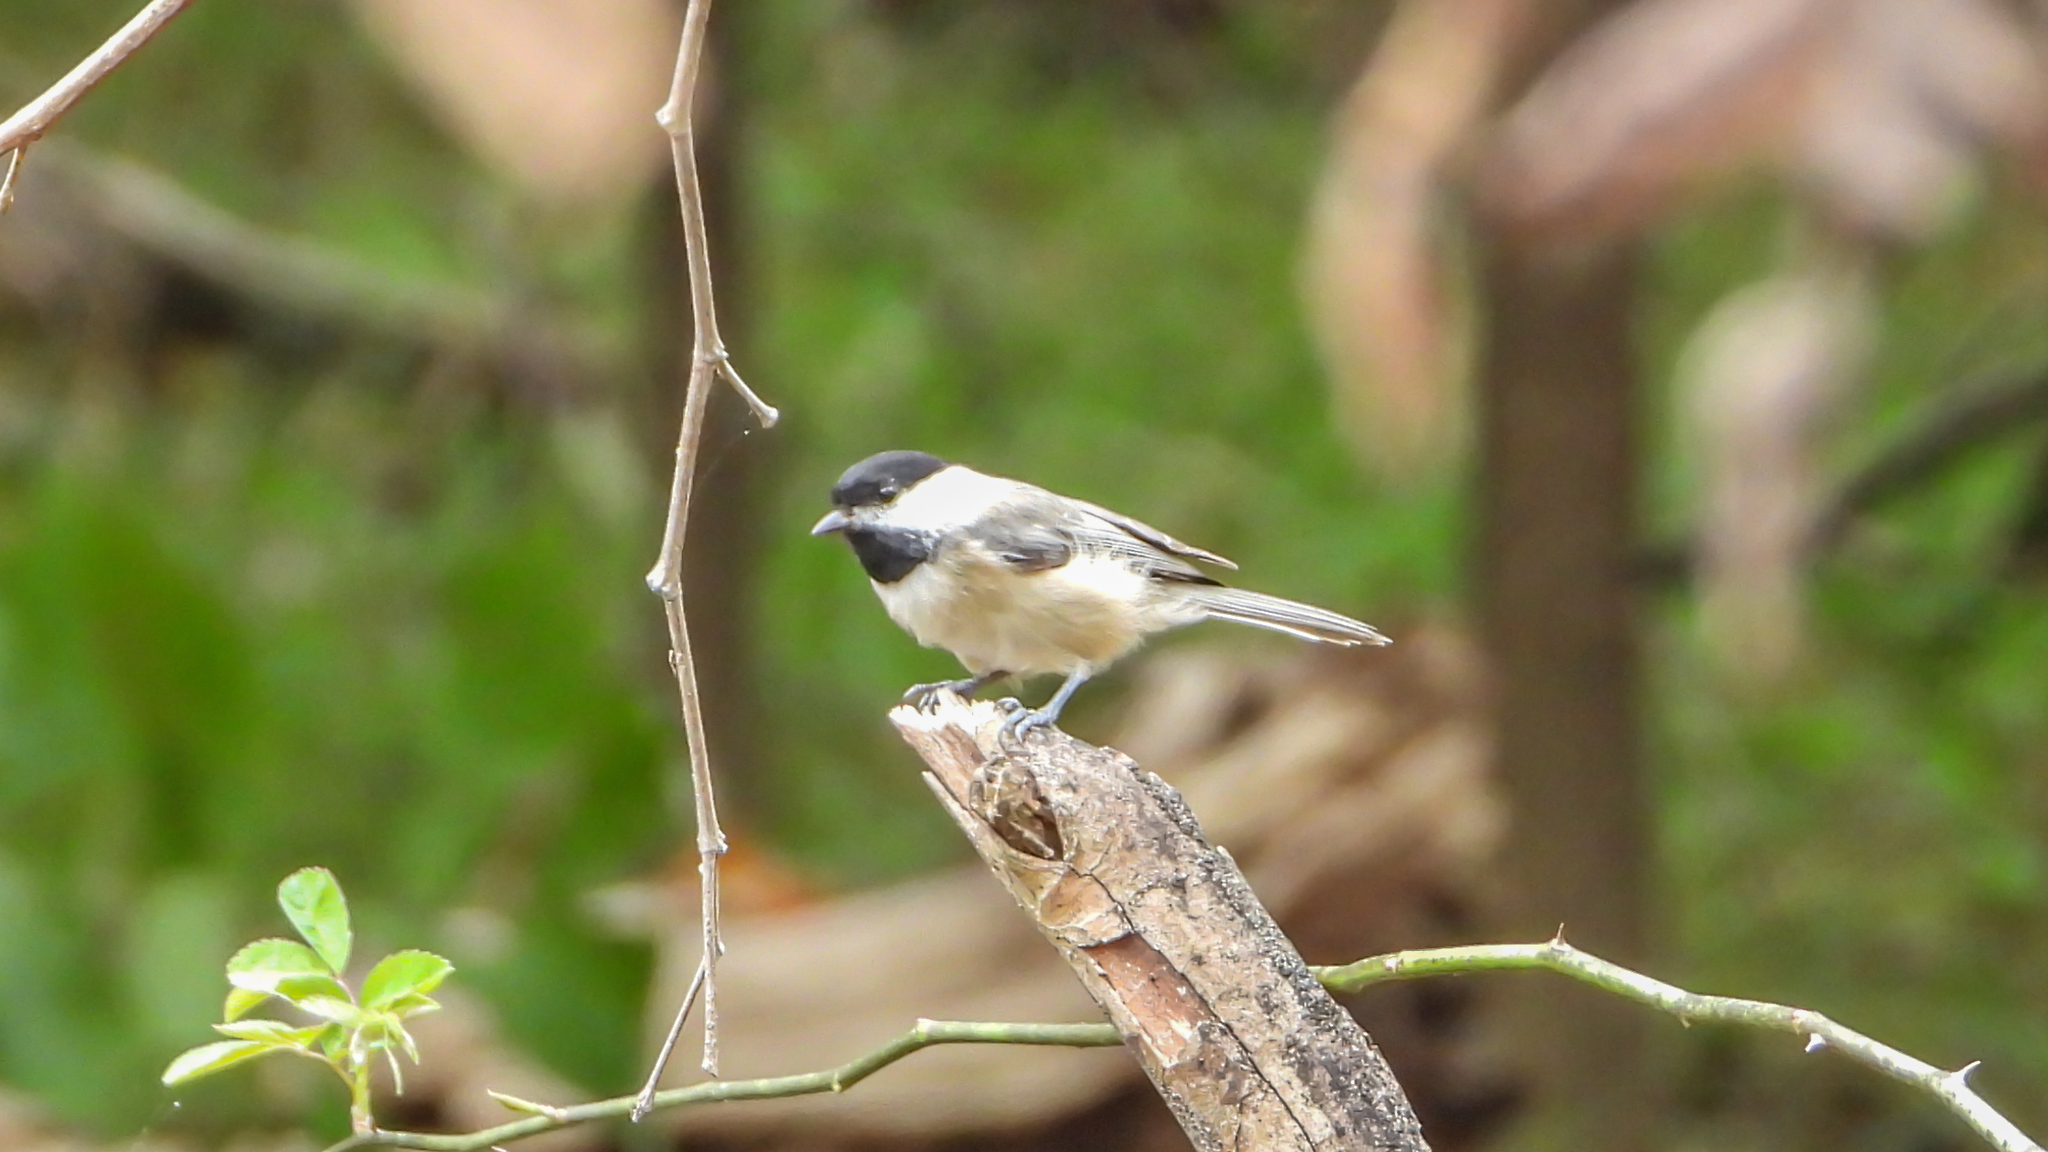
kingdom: Animalia
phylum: Chordata
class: Aves
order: Passeriformes
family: Paridae
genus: Poecile
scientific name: Poecile carolinensis
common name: Carolina chickadee
